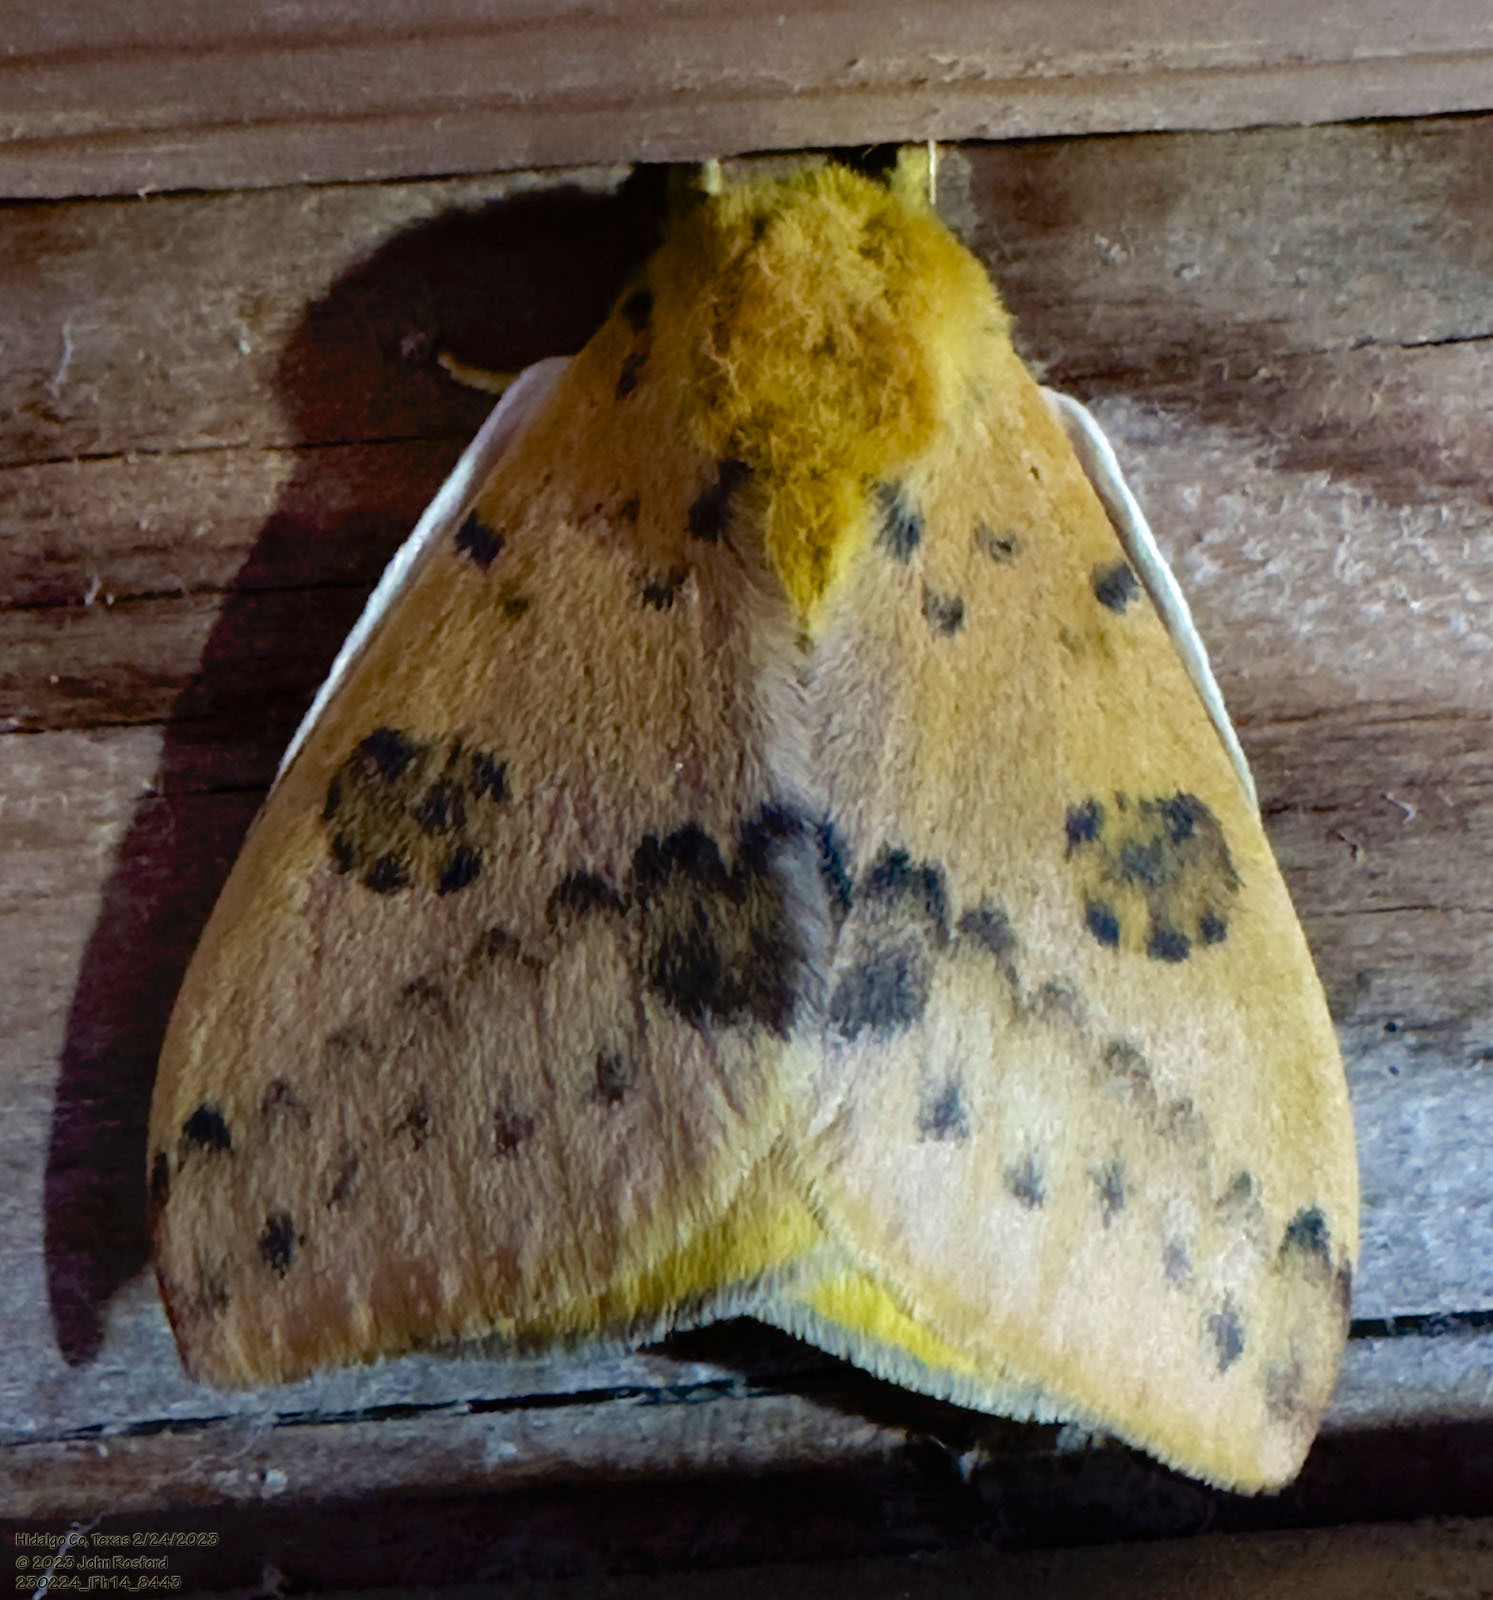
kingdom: Animalia
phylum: Arthropoda
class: Insecta
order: Lepidoptera
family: Saturniidae
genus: Automeris
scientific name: Automeris io
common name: Io moth
